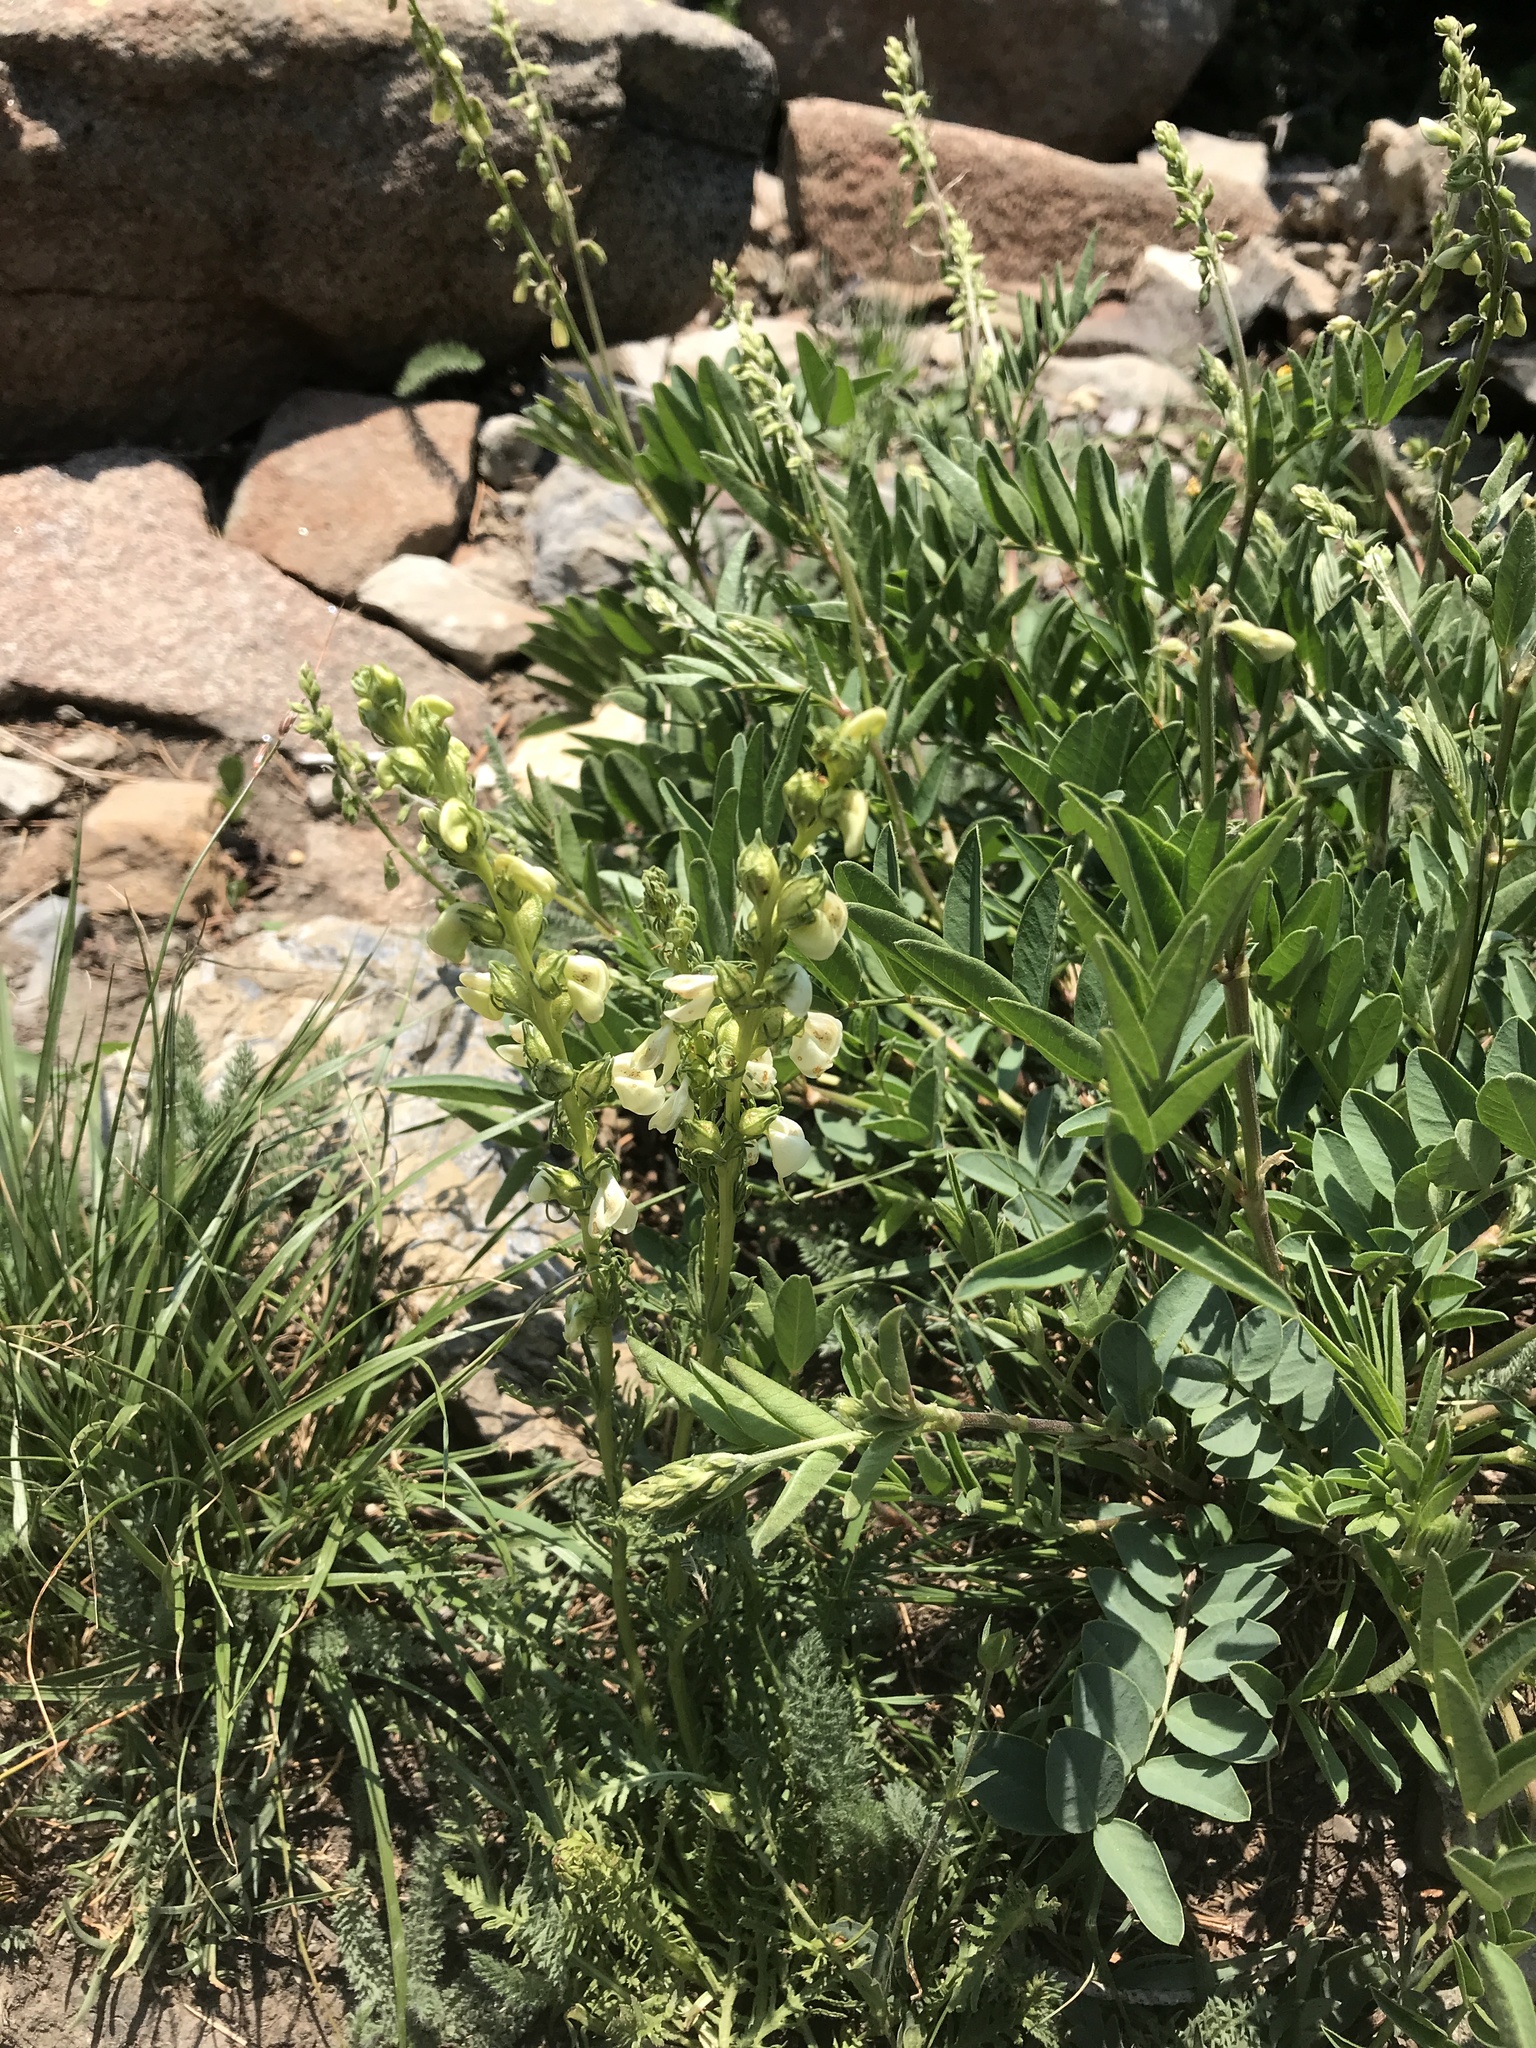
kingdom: Plantae
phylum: Tracheophyta
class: Magnoliopsida
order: Lamiales
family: Orobanchaceae
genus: Pedicularis
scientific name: Pedicularis contorta
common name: Coiled lousewort
